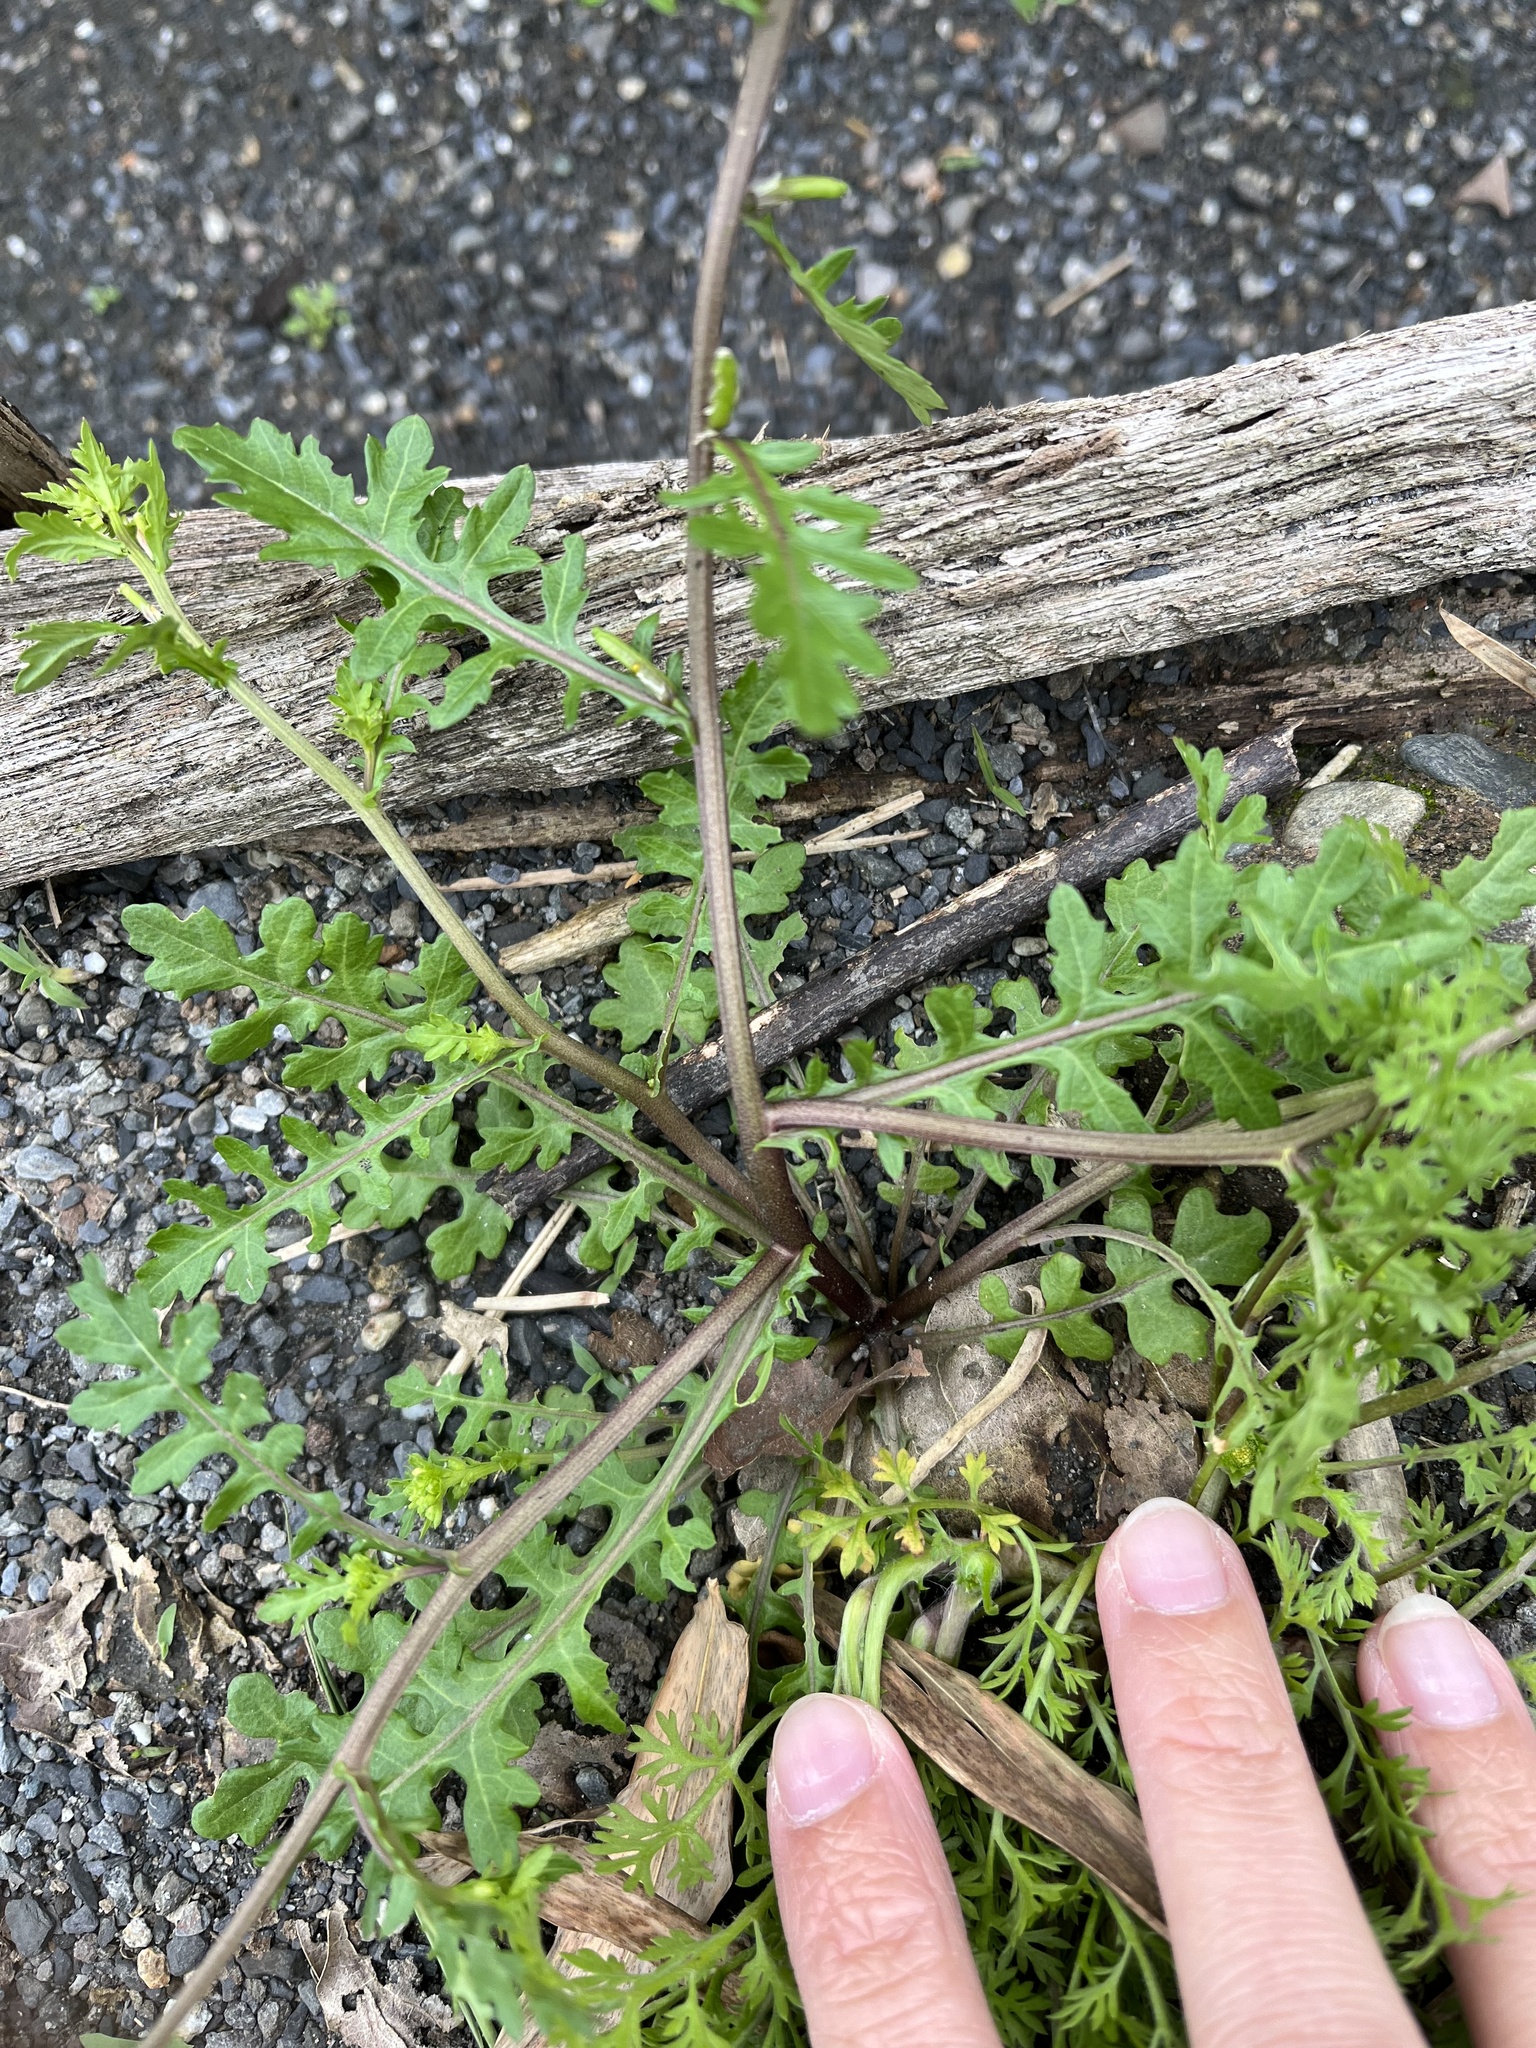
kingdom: Plantae
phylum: Tracheophyta
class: Magnoliopsida
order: Brassicales
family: Brassicaceae
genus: Rorippa
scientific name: Rorippa cantoniensis
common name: Chinese yellowcress
